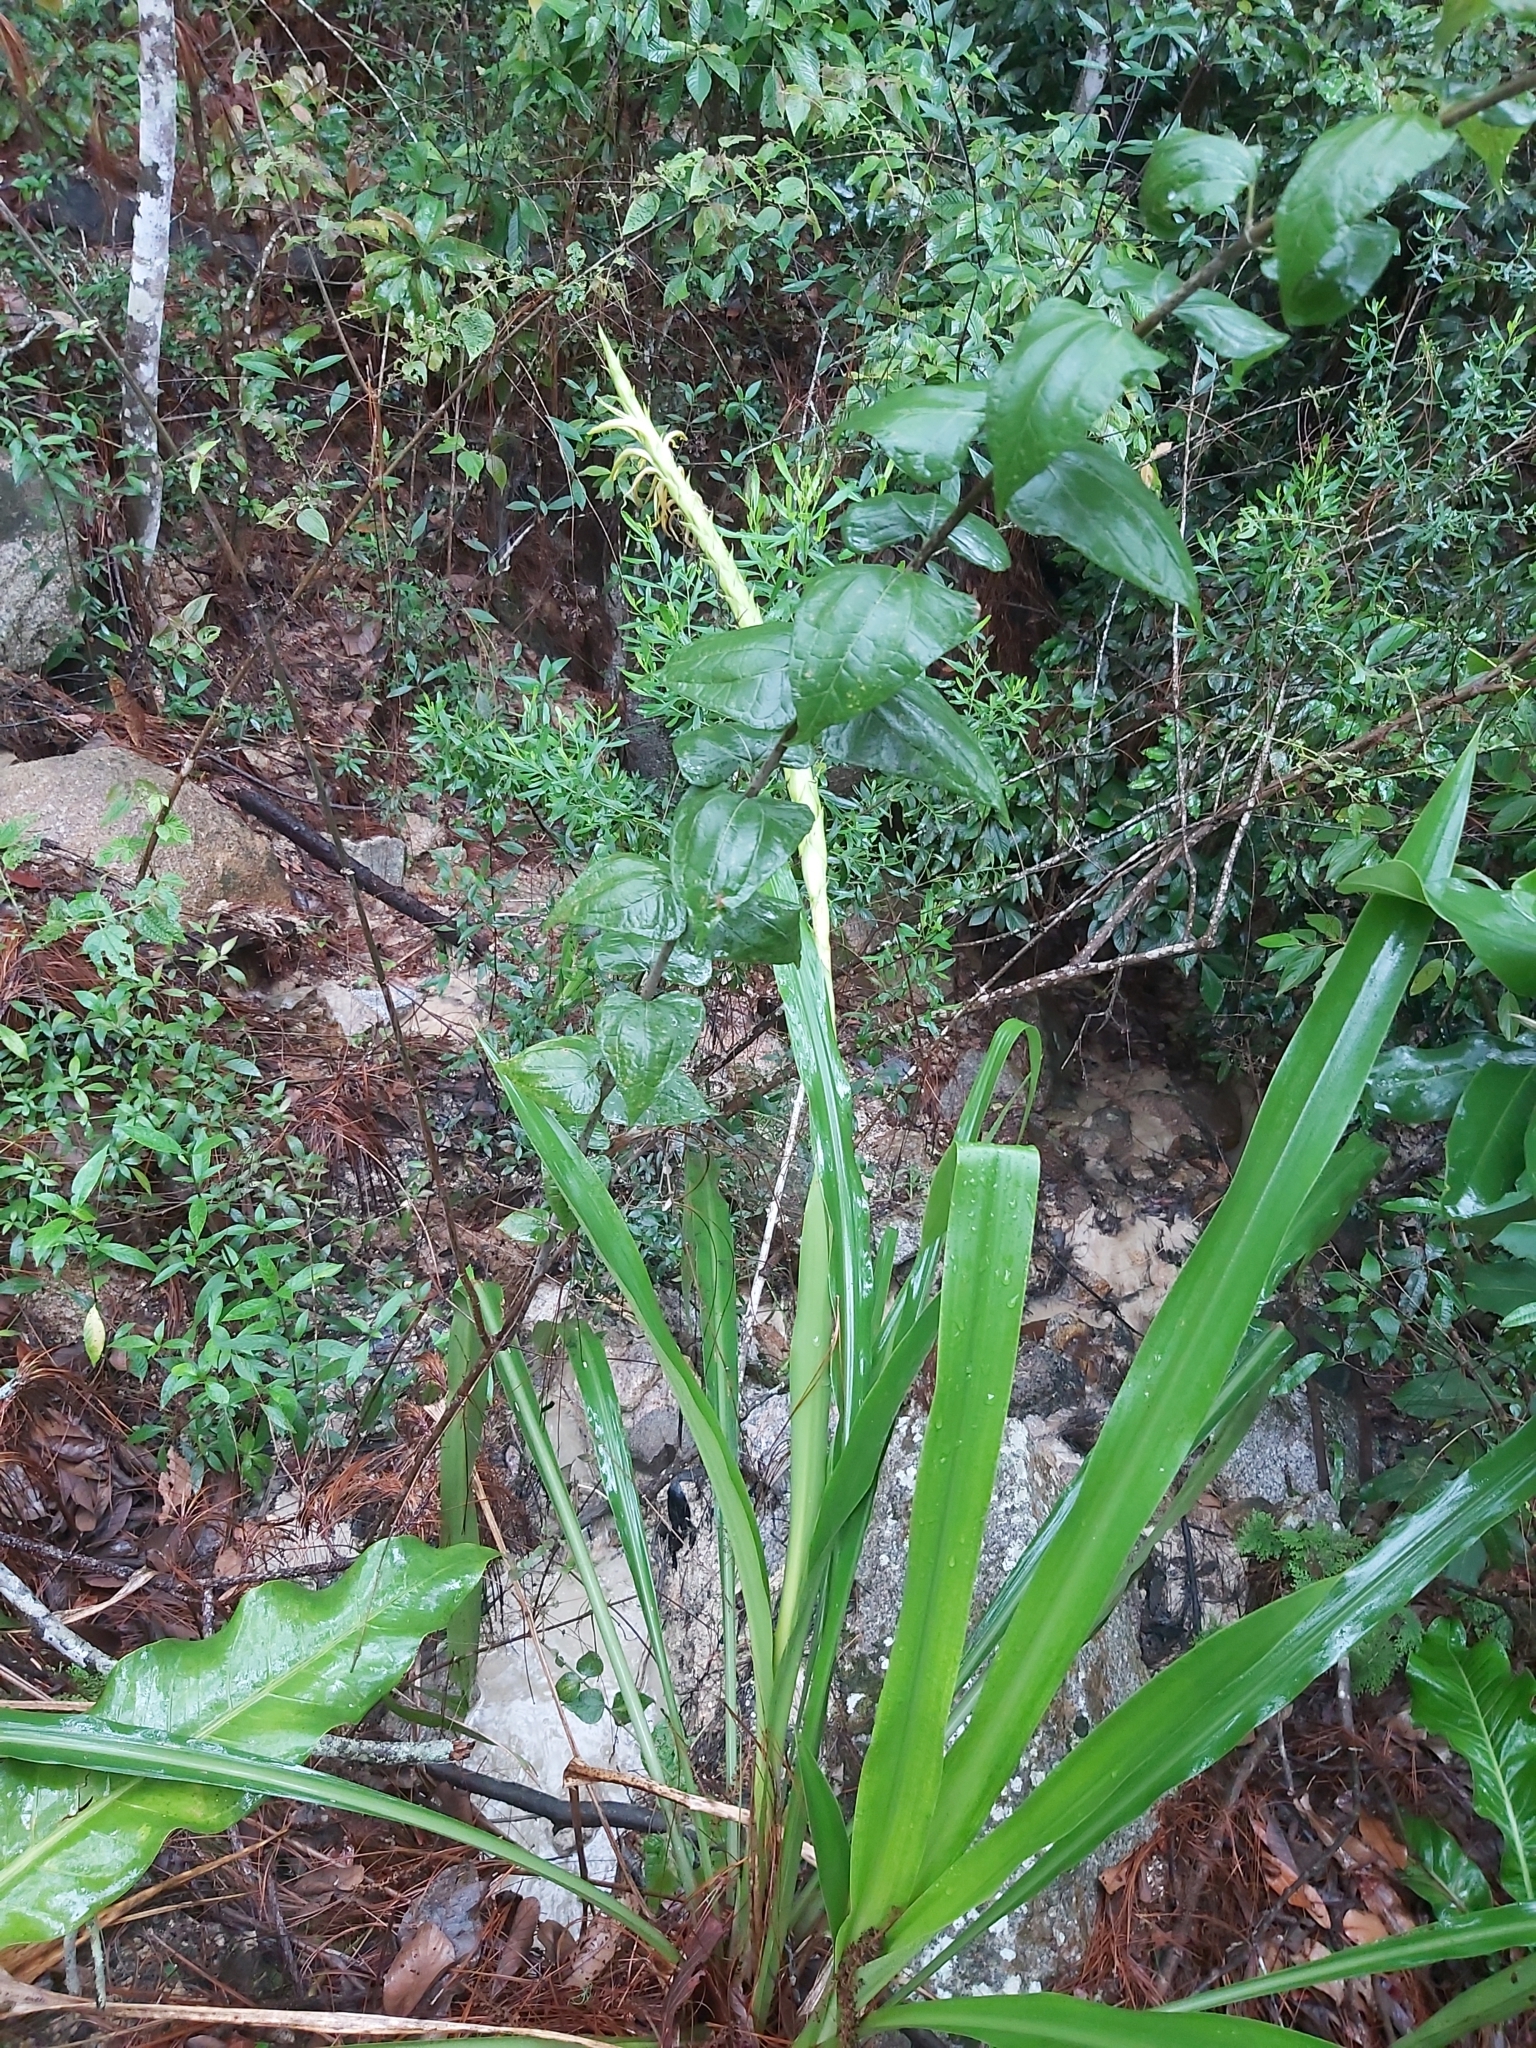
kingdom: Plantae
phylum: Tracheophyta
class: Liliopsida
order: Poales
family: Bromeliaceae
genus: Pitcairnia
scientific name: Pitcairnia abscondita
